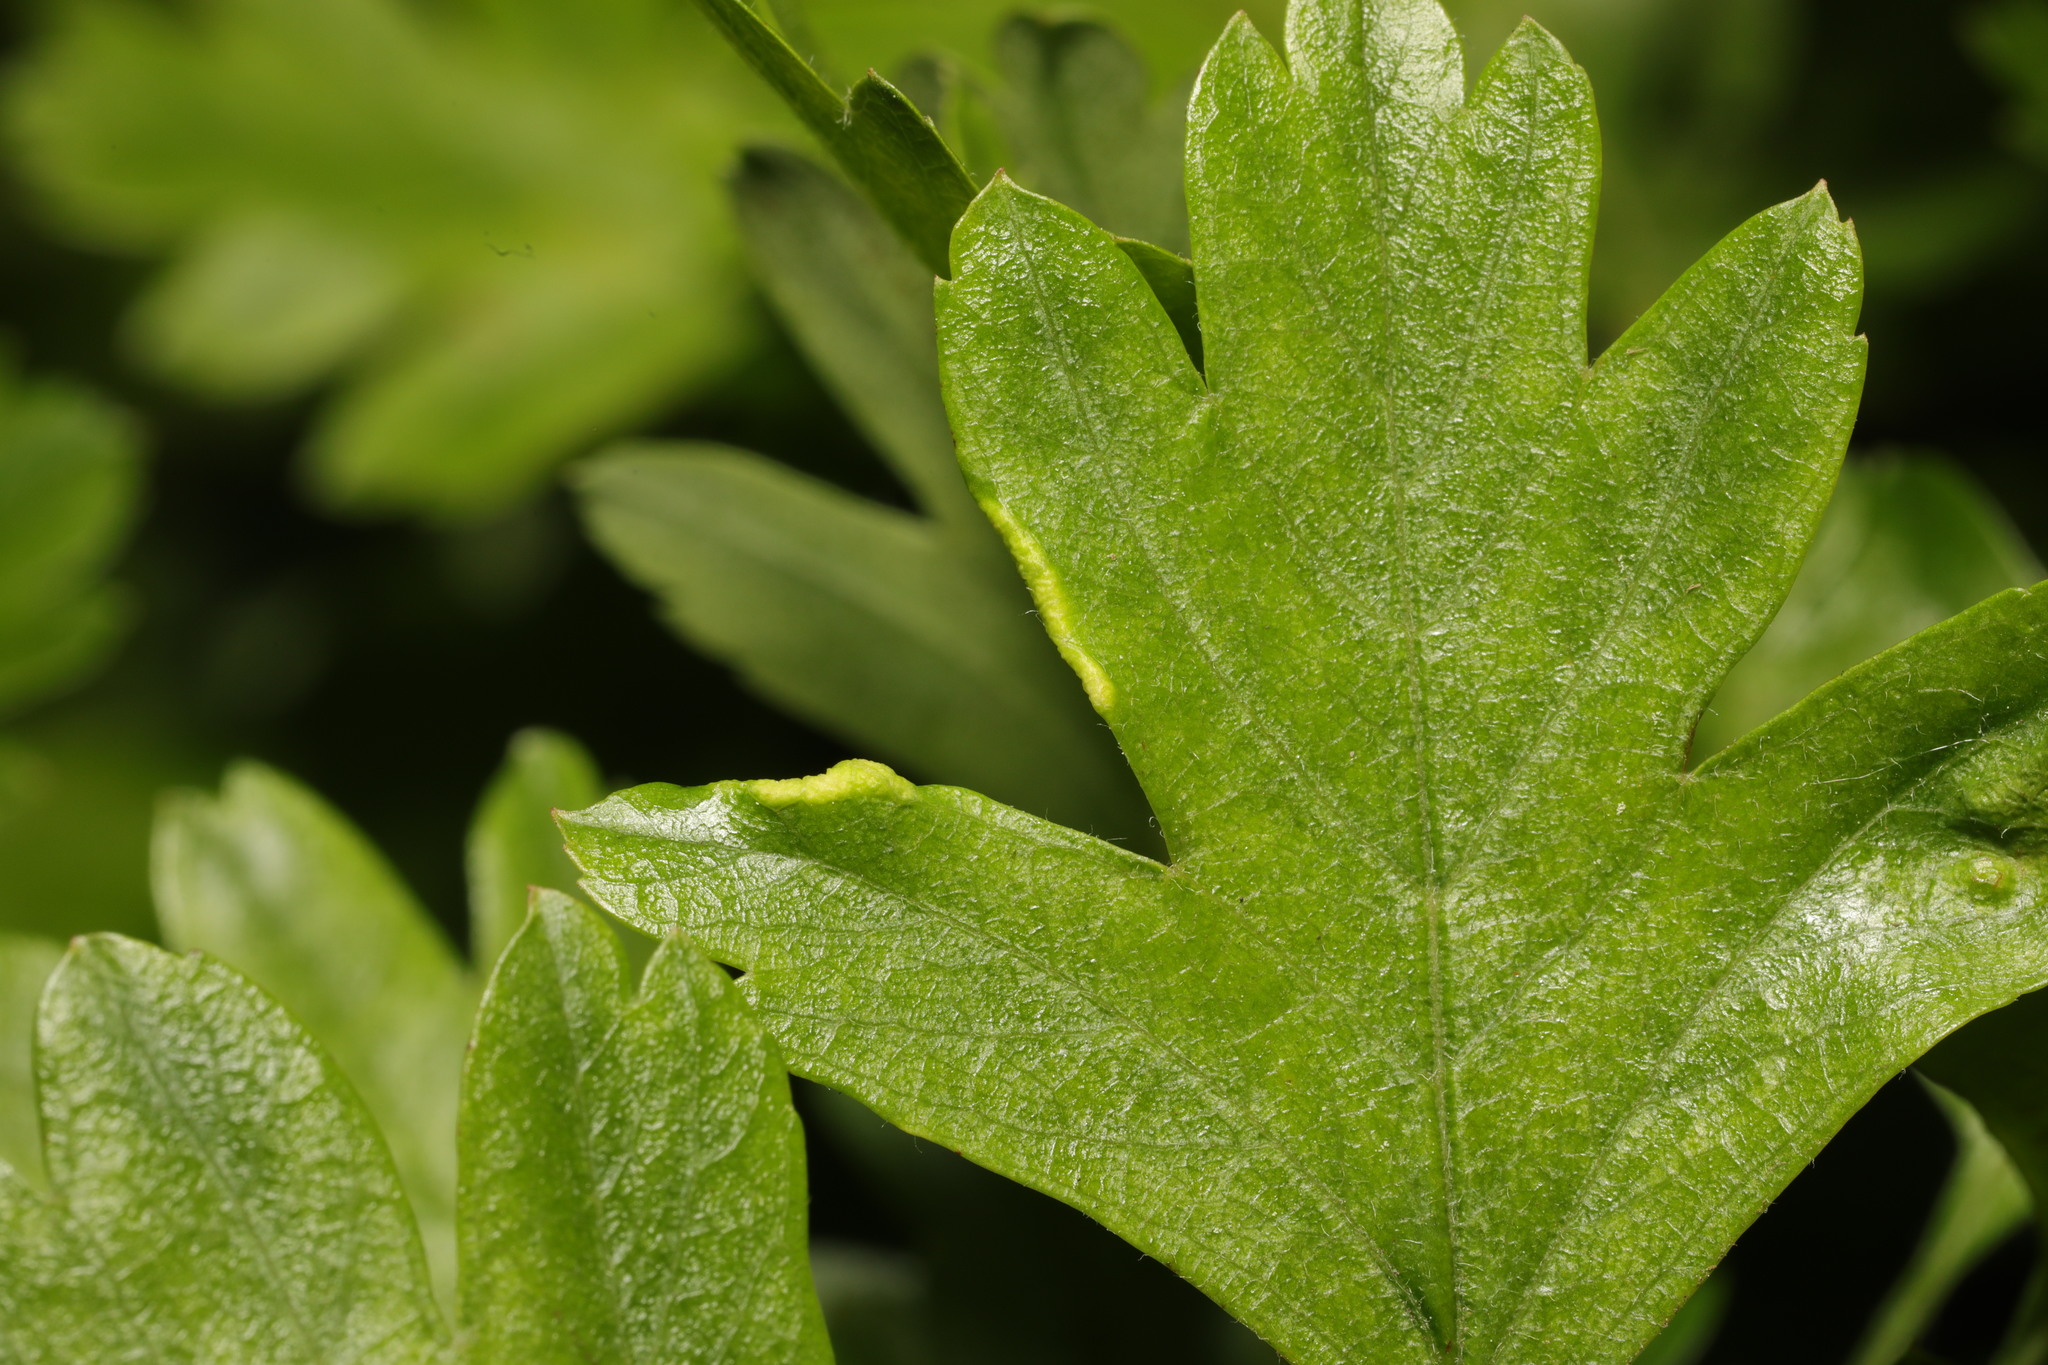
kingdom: Animalia
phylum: Arthropoda
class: Arachnida
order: Trombidiformes
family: Eriophyidae
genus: Phyllocoptes
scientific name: Phyllocoptes goniothorax
